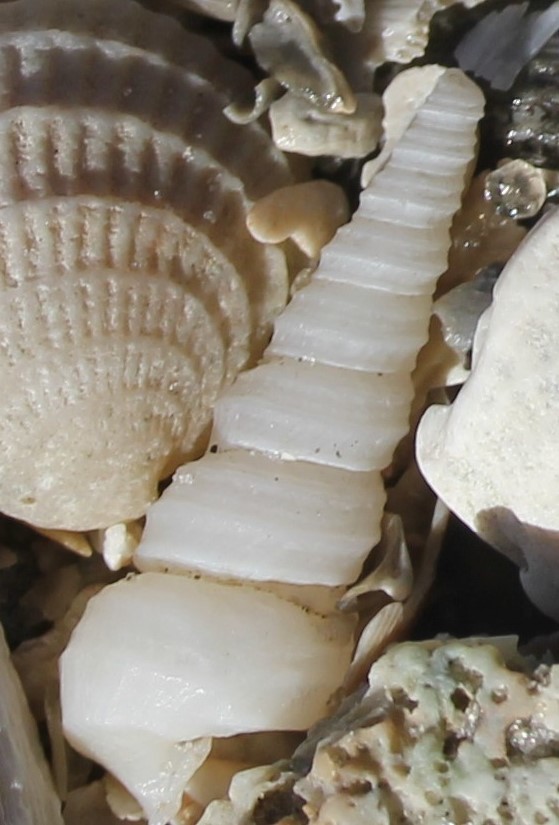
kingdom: Animalia
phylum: Mollusca
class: Gastropoda
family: Turritellidae
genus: Vermicularia
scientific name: Vermicularia fargoi
